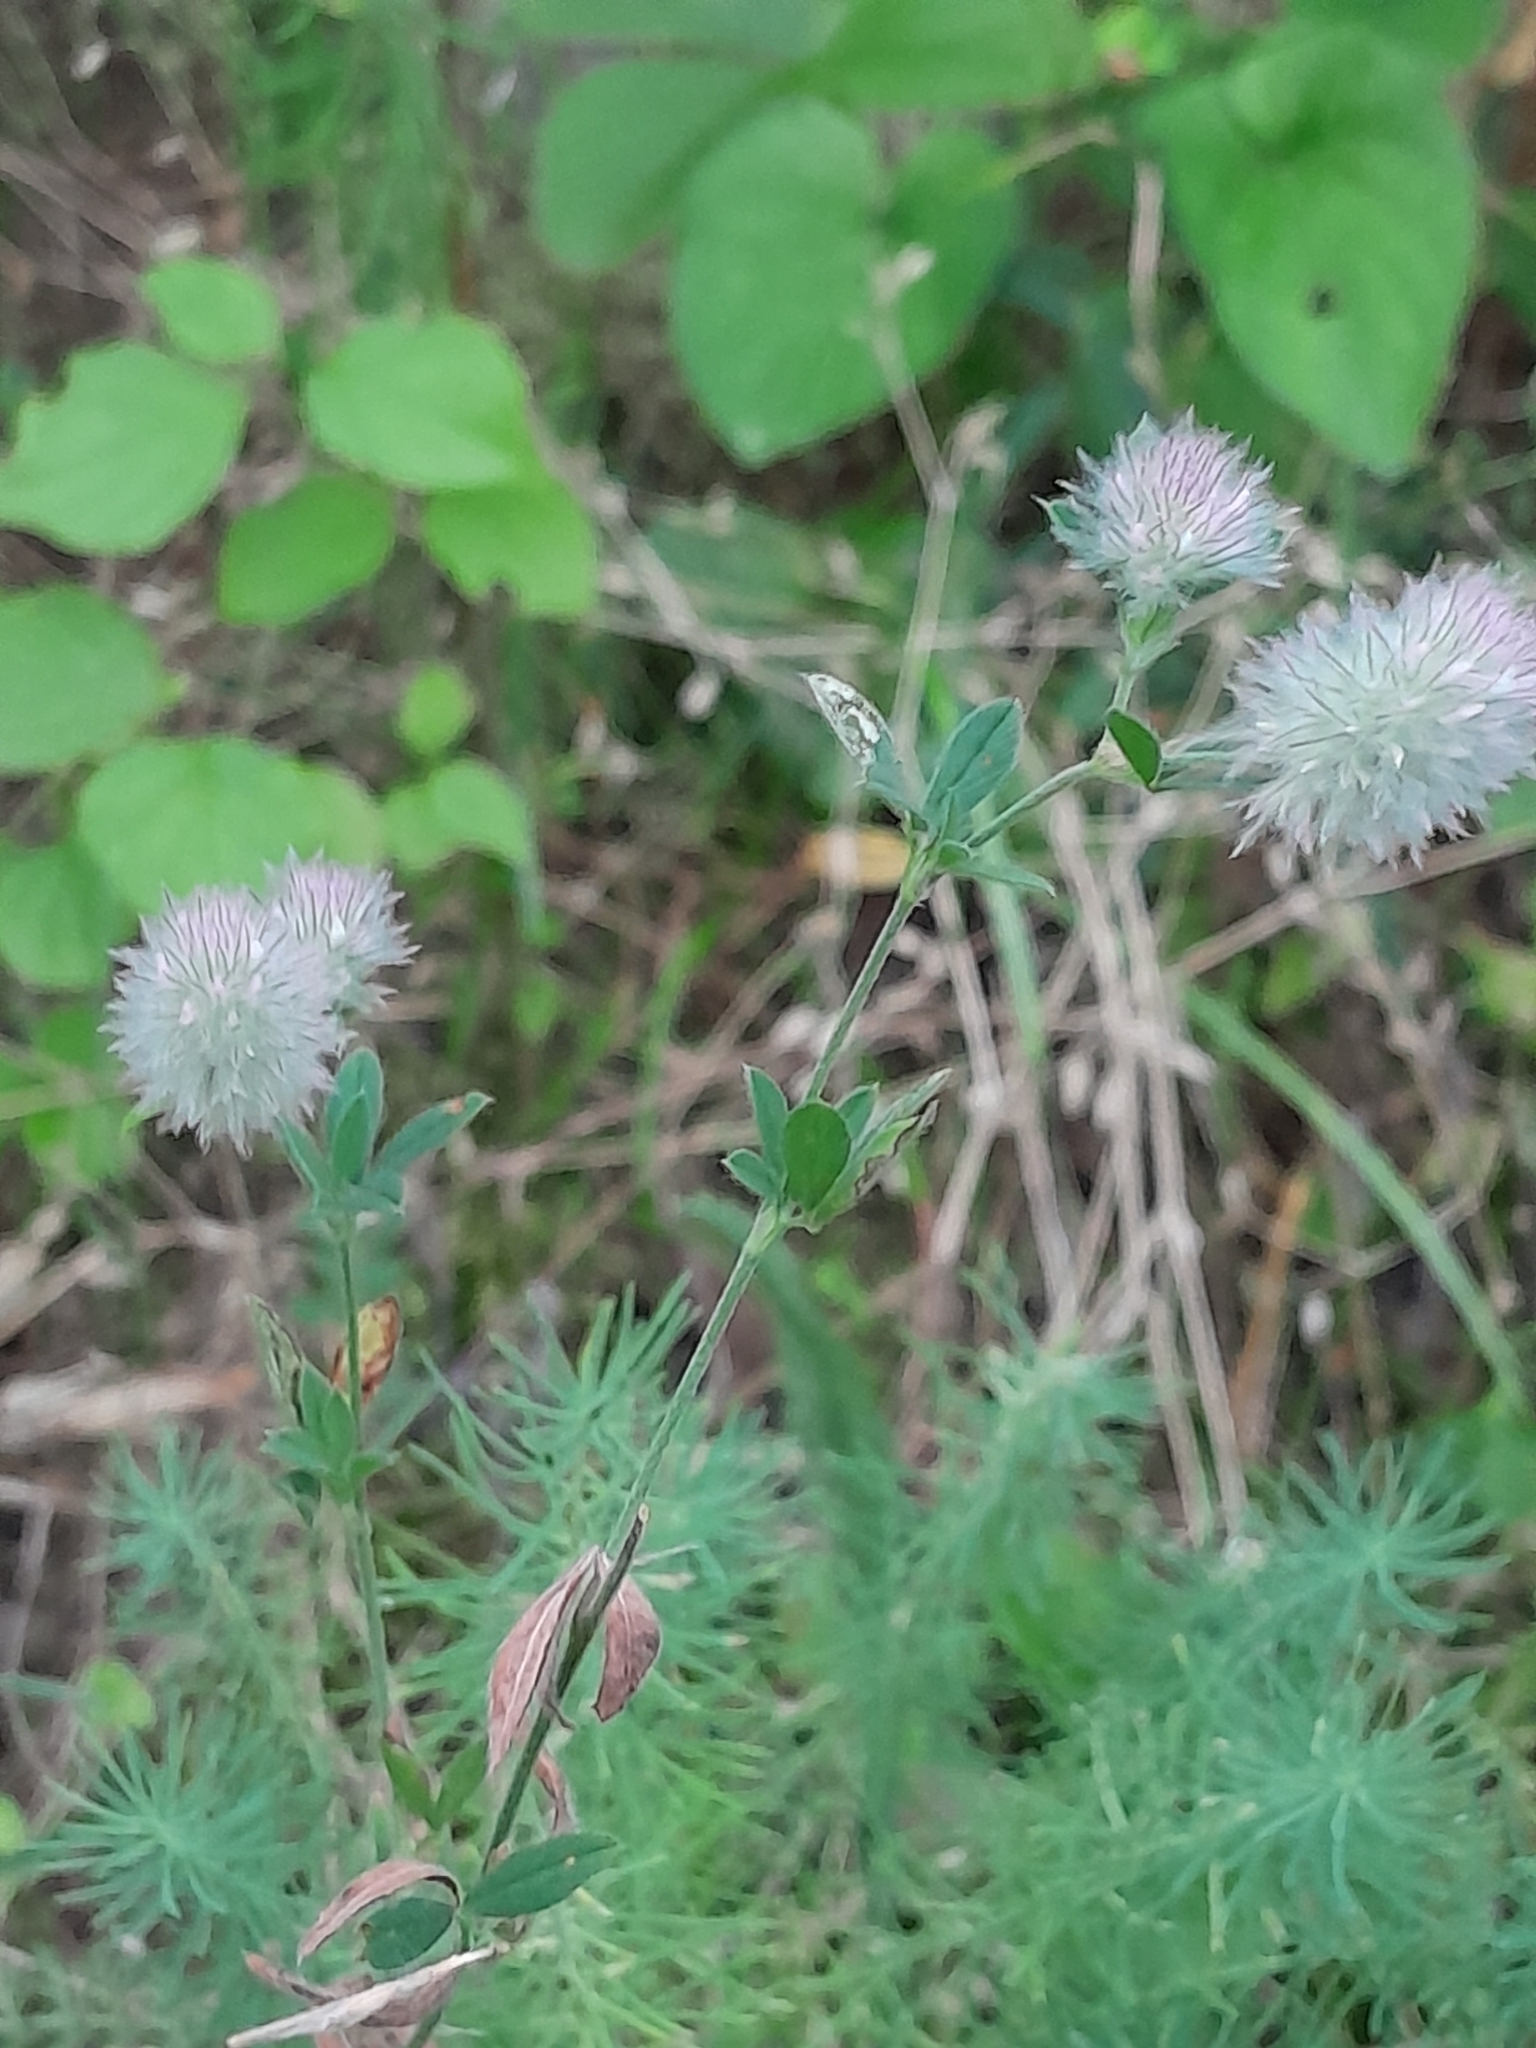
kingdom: Plantae
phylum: Tracheophyta
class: Magnoliopsida
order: Fabales
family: Fabaceae
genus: Trifolium
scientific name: Trifolium arvense
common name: Hare's-foot clover
